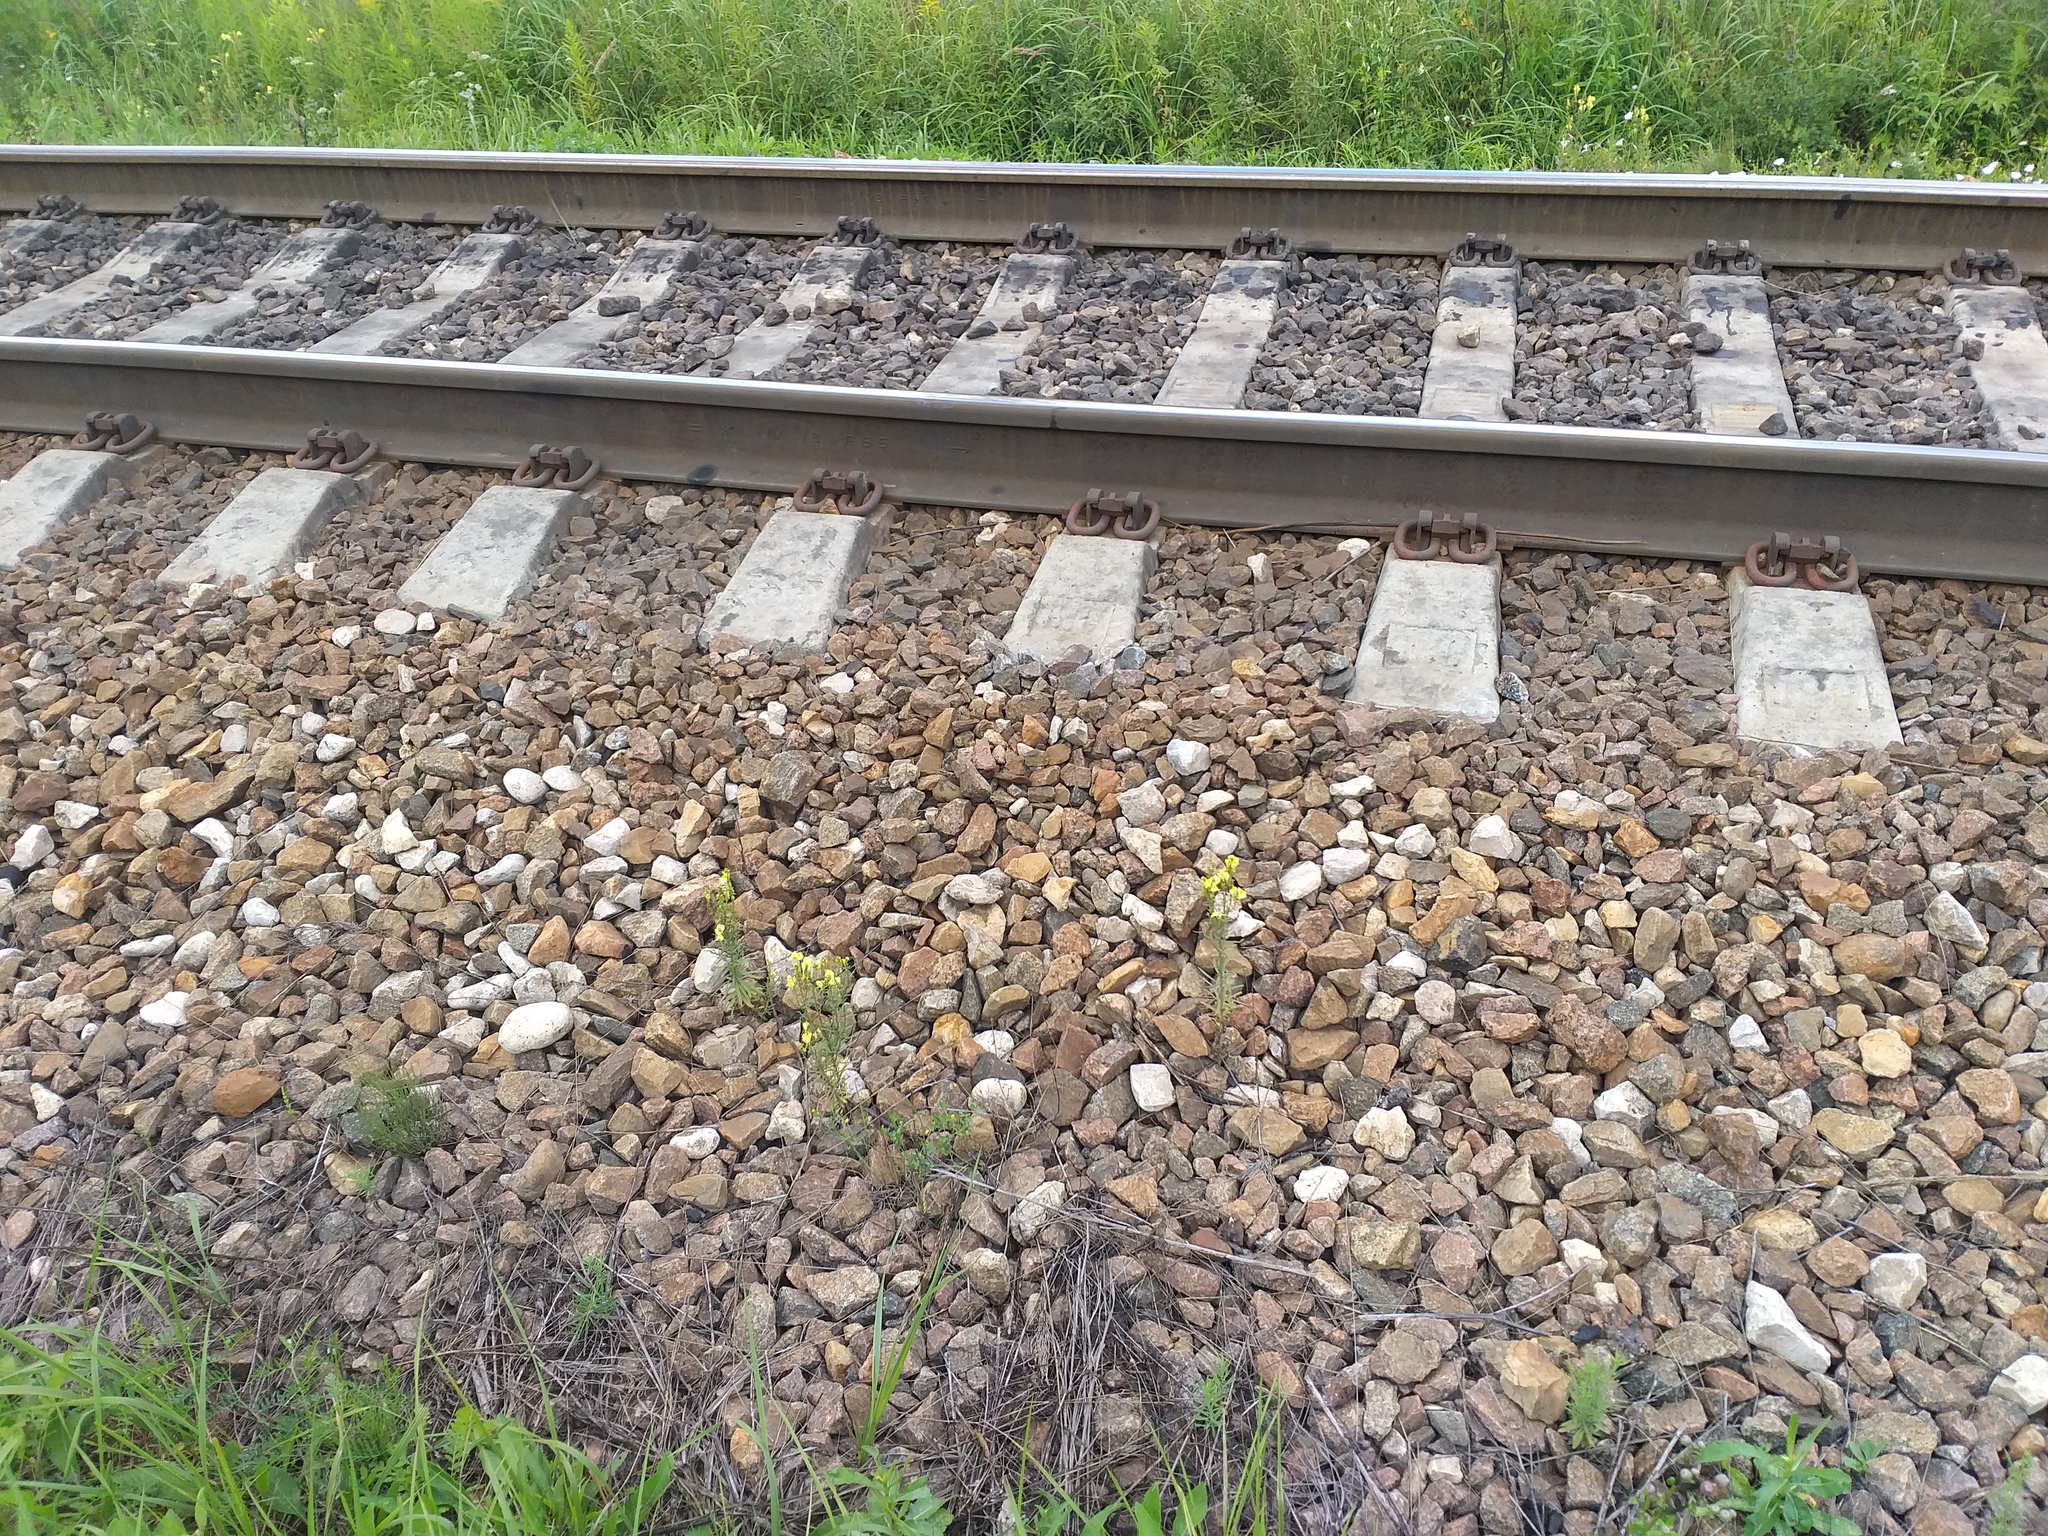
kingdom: Plantae
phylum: Tracheophyta
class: Magnoliopsida
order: Lamiales
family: Plantaginaceae
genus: Linaria
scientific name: Linaria vulgaris
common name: Butter and eggs
